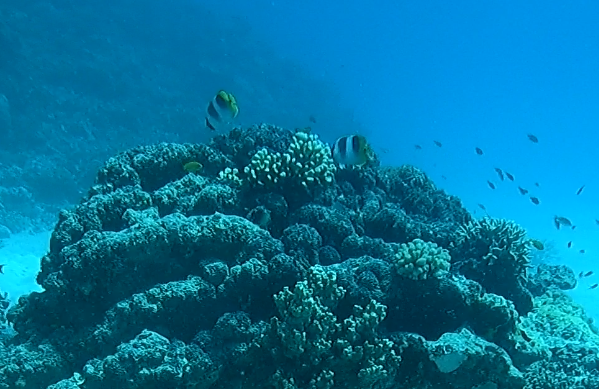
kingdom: Animalia
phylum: Chordata
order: Perciformes
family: Chaetodontidae
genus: Chaetodon
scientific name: Chaetodon ulietensis
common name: Pacific double-saddle butterflyfish
